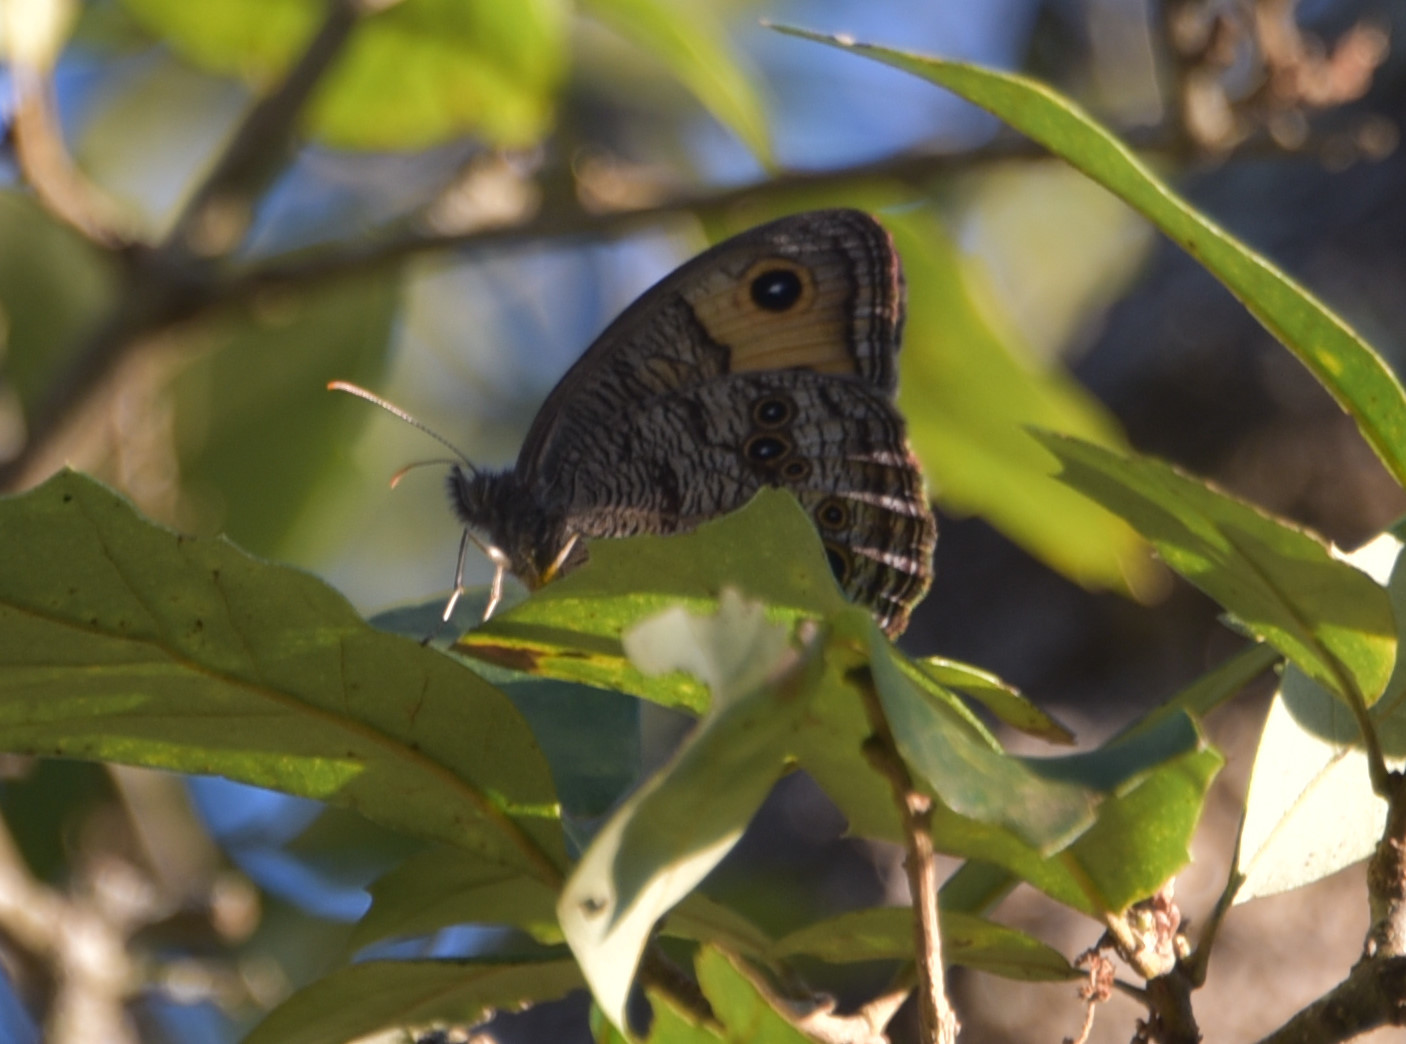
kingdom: Animalia
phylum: Arthropoda
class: Insecta
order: Lepidoptera
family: Nymphalidae
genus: Cercyonis
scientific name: Cercyonis pegala
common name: Common wood-nymph
